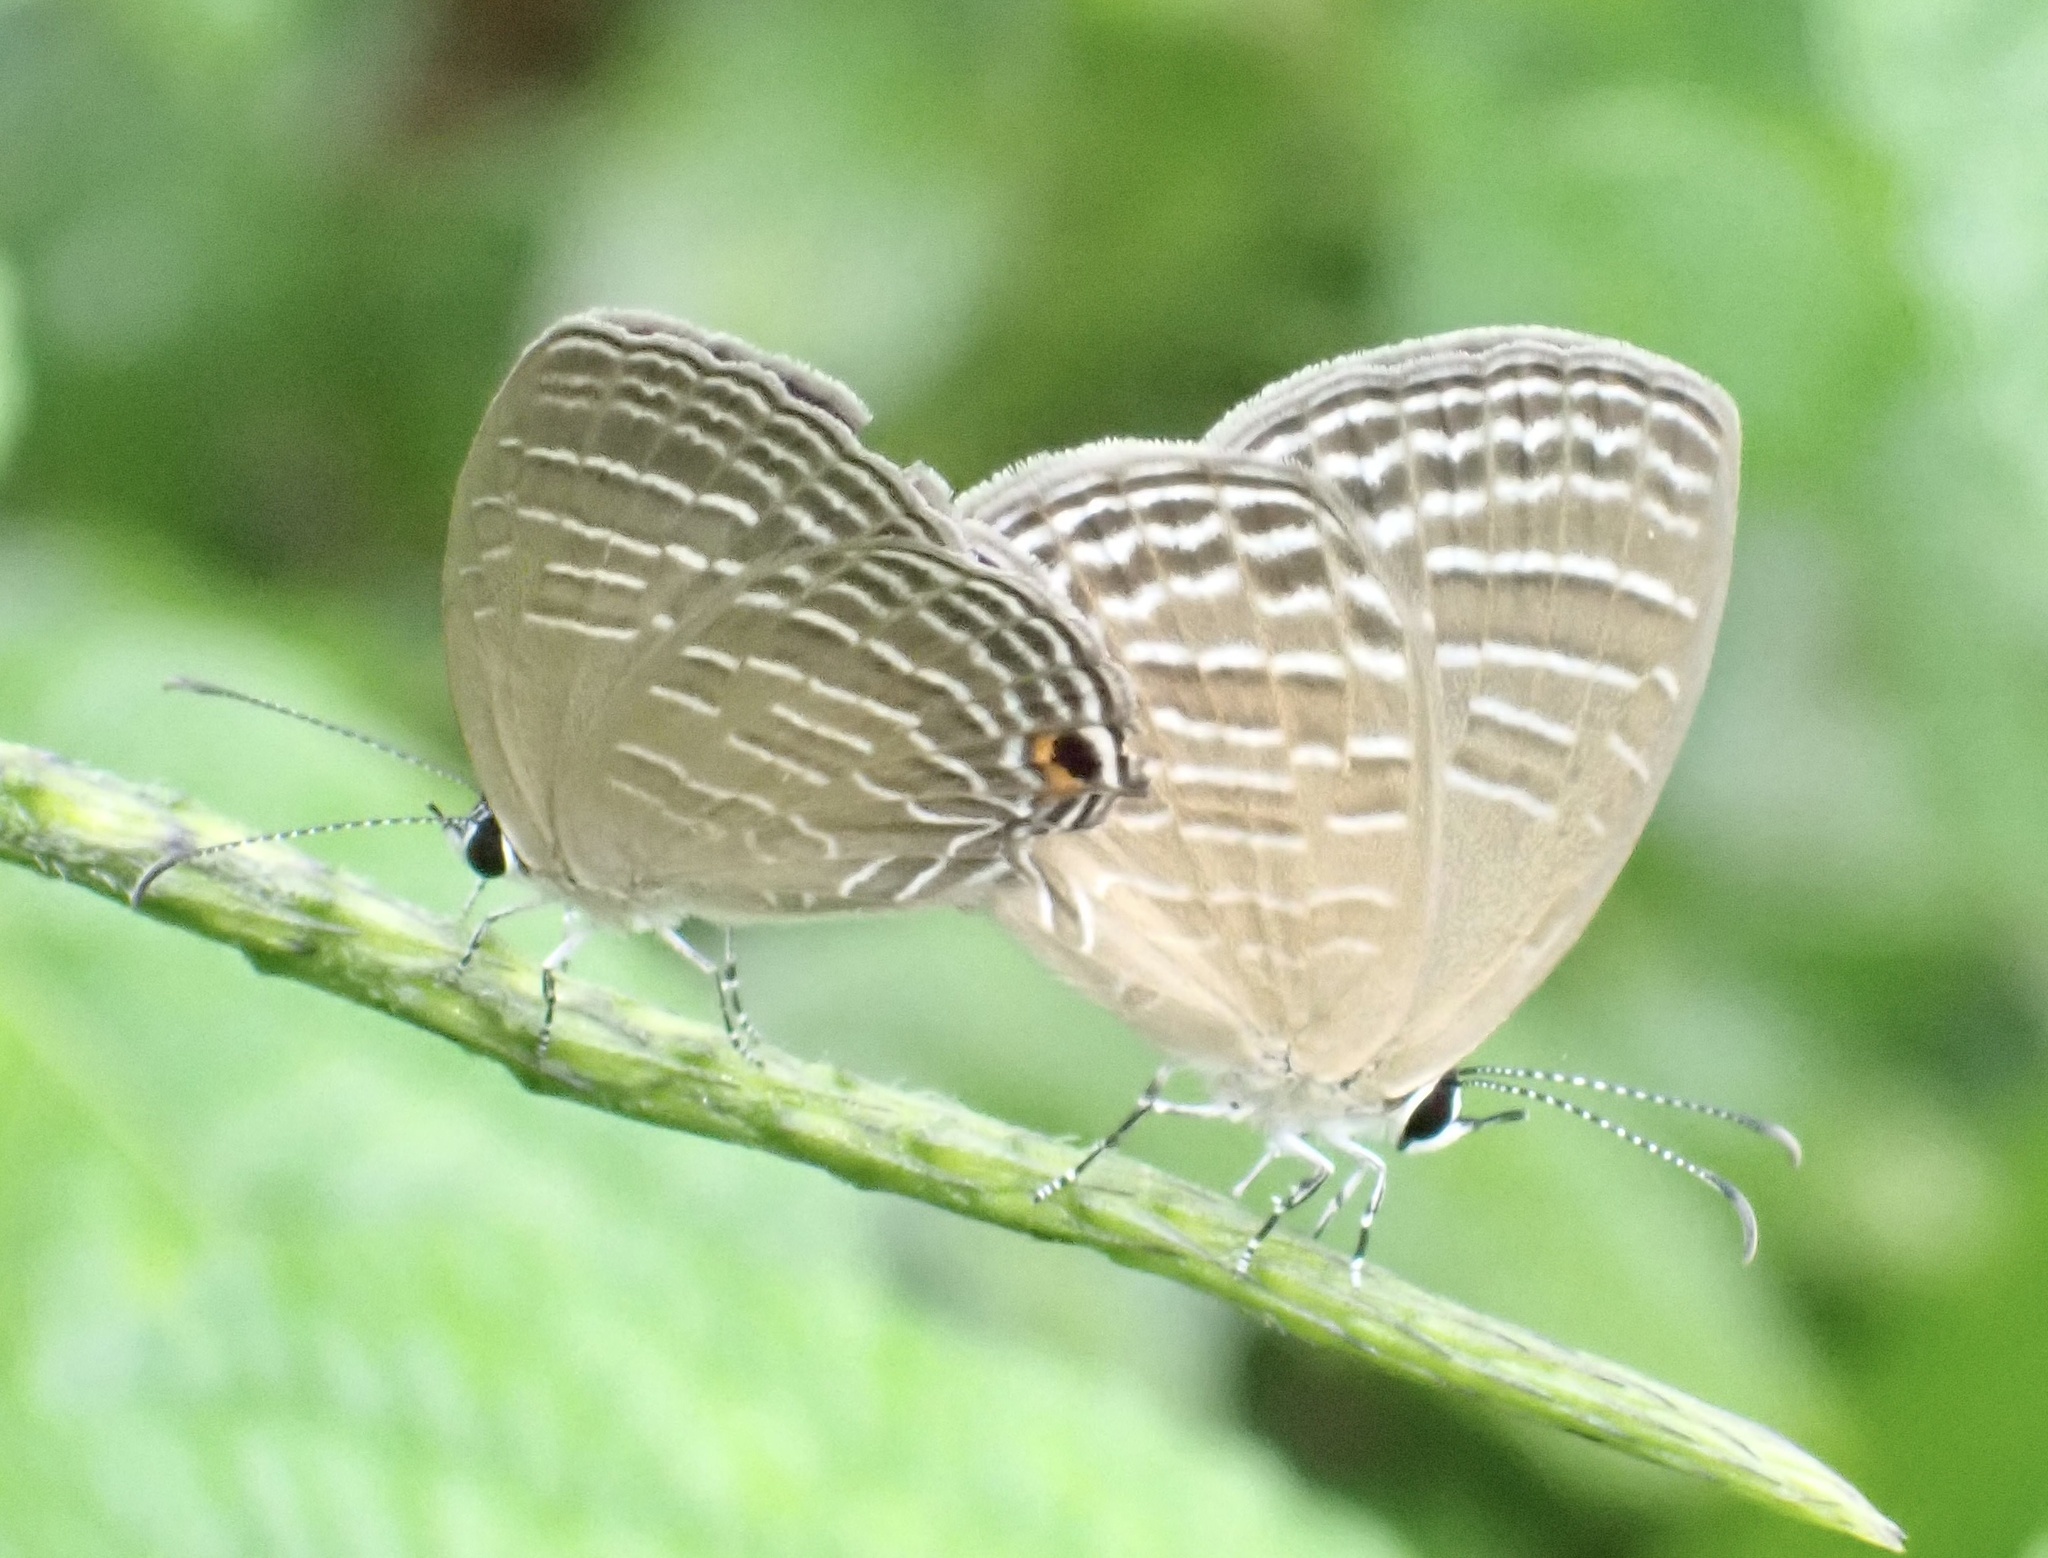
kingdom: Animalia
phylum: Arthropoda
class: Insecta
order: Lepidoptera
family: Lycaenidae
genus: Jamides
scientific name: Jamides celeno
